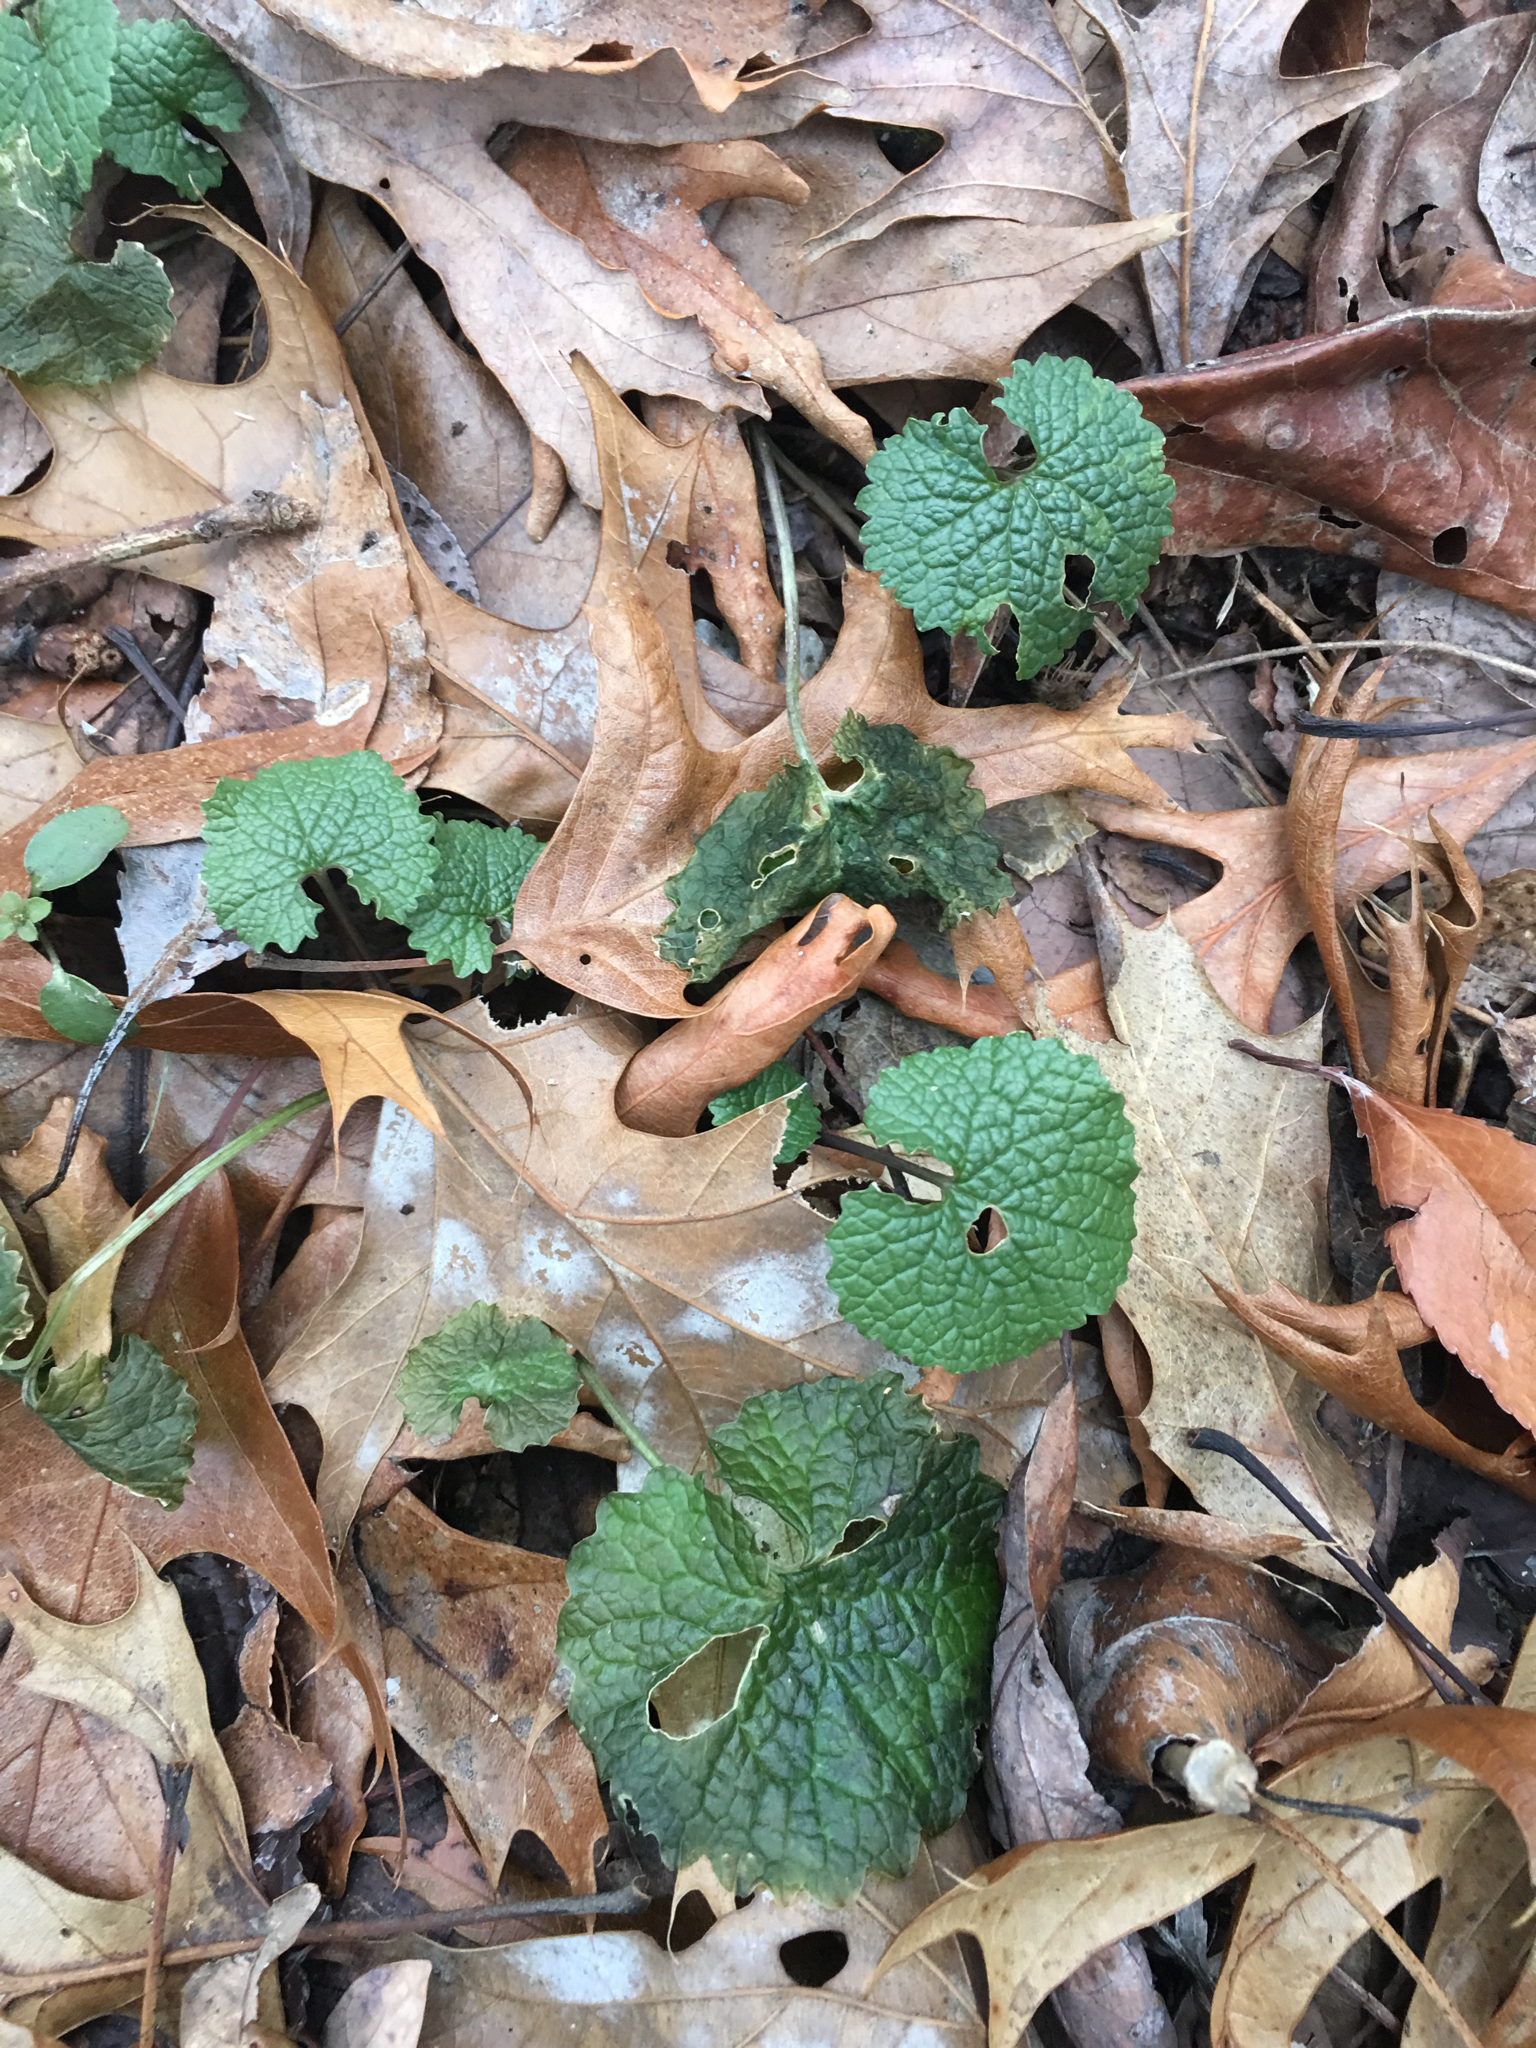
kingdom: Plantae
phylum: Tracheophyta
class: Magnoliopsida
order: Brassicales
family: Brassicaceae
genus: Alliaria
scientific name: Alliaria petiolata
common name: Garlic mustard
